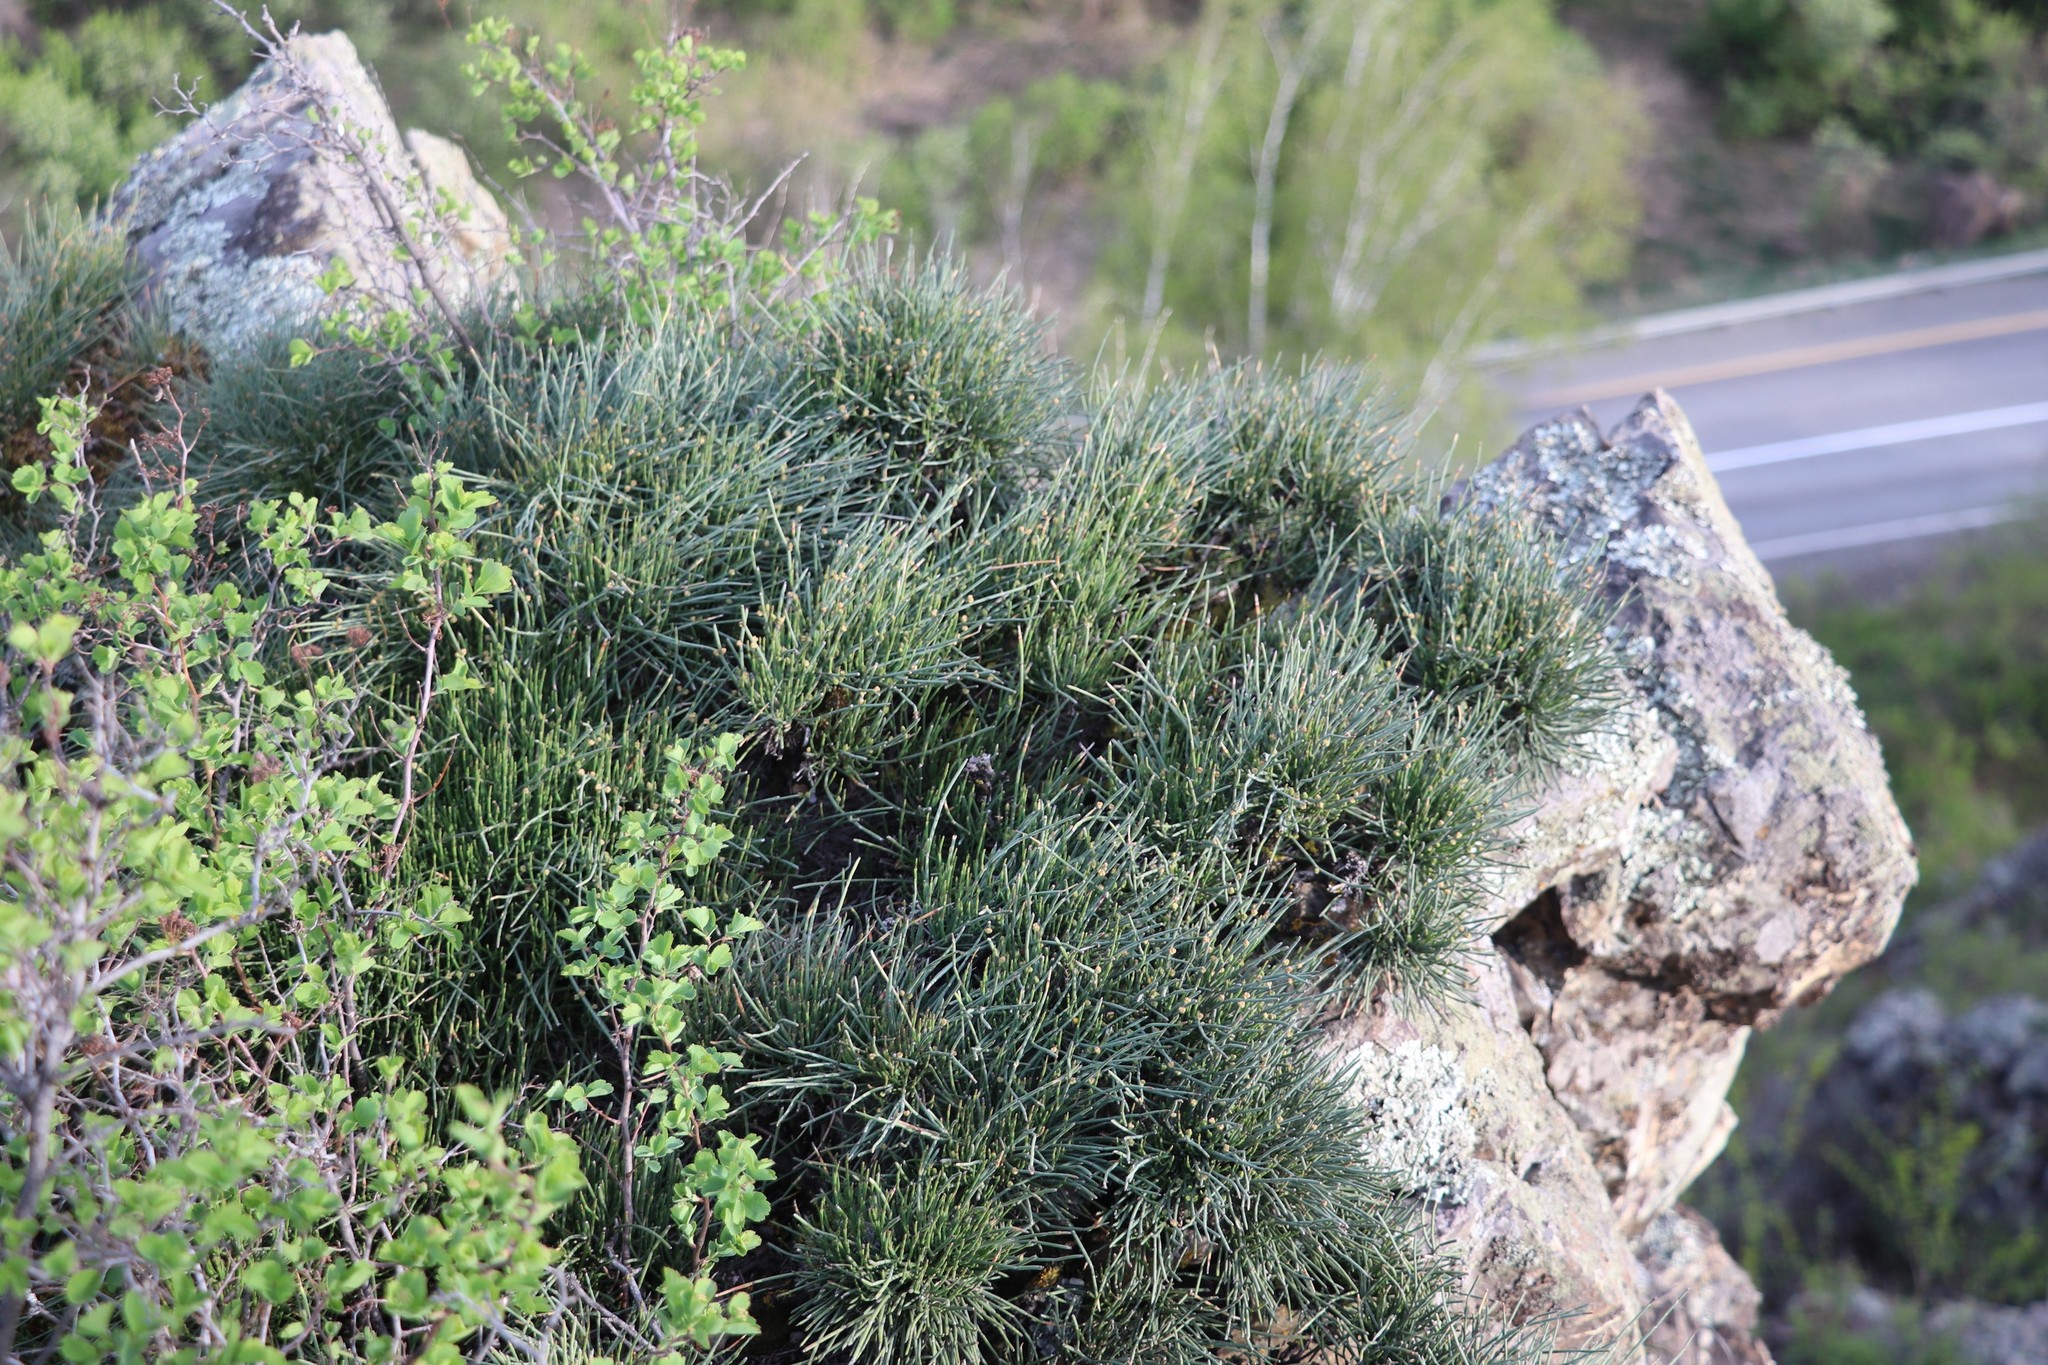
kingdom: Plantae
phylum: Tracheophyta
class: Gnetopsida
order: Ephedrales
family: Ephedraceae
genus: Ephedra
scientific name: Ephedra equisetina
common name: Mongolian ephedra
